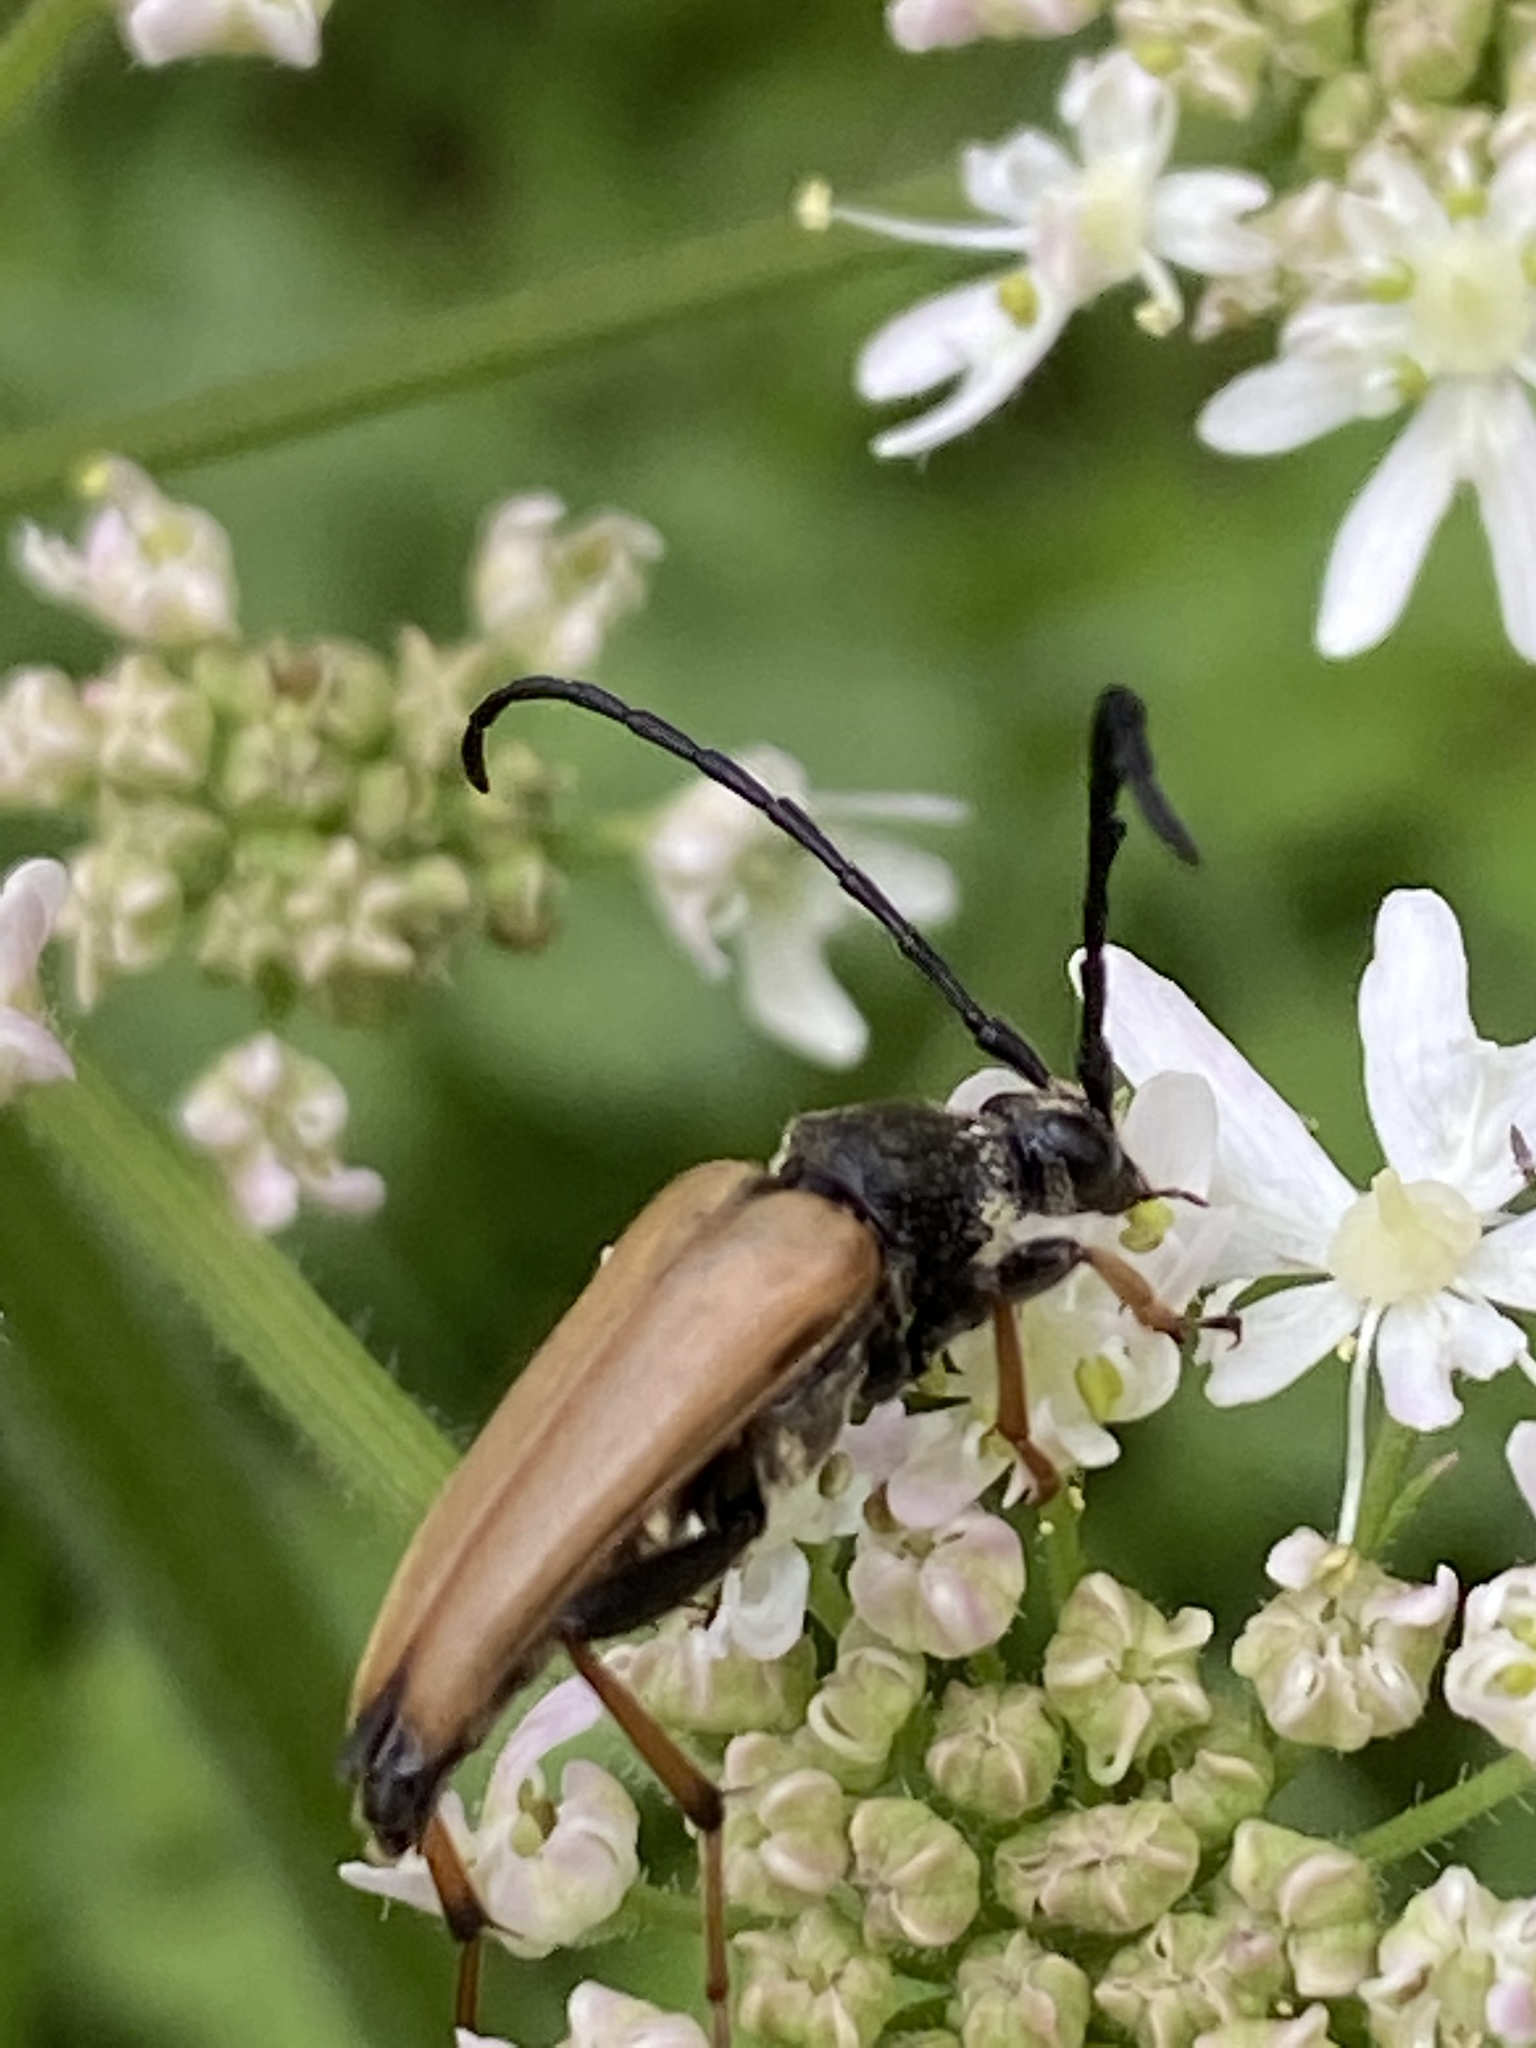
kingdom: Animalia
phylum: Arthropoda
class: Insecta
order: Coleoptera
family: Cerambycidae
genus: Stictoleptura
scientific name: Stictoleptura rubra
